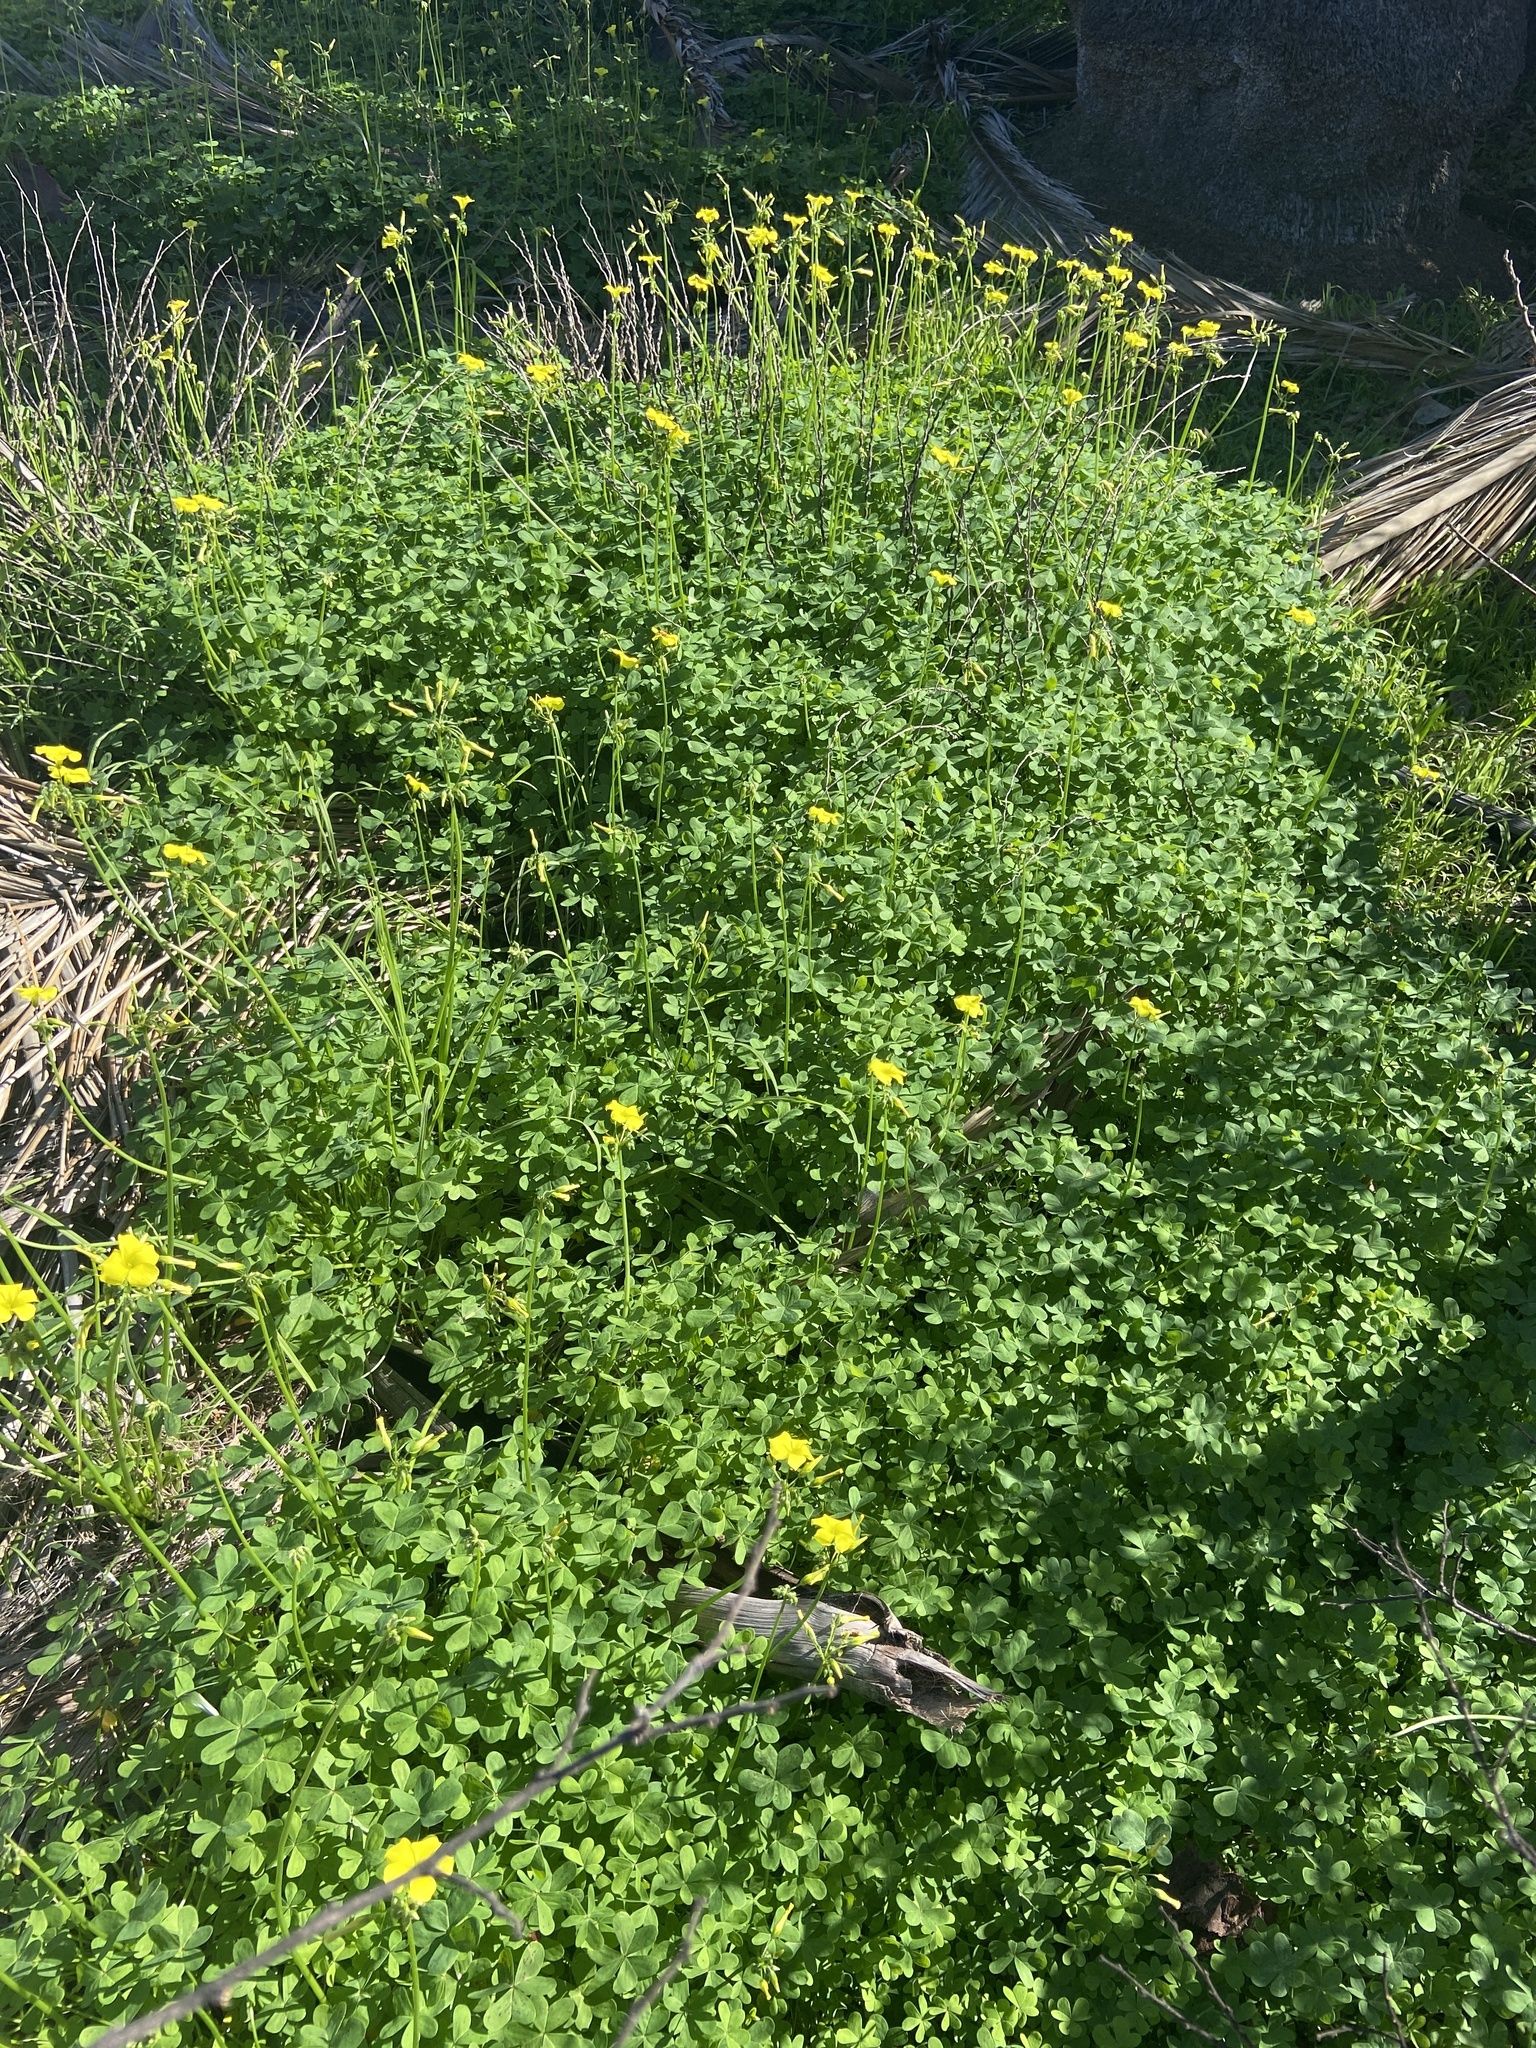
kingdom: Plantae
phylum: Tracheophyta
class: Magnoliopsida
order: Oxalidales
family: Oxalidaceae
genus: Oxalis
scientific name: Oxalis pes-caprae
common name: Bermuda-buttercup
